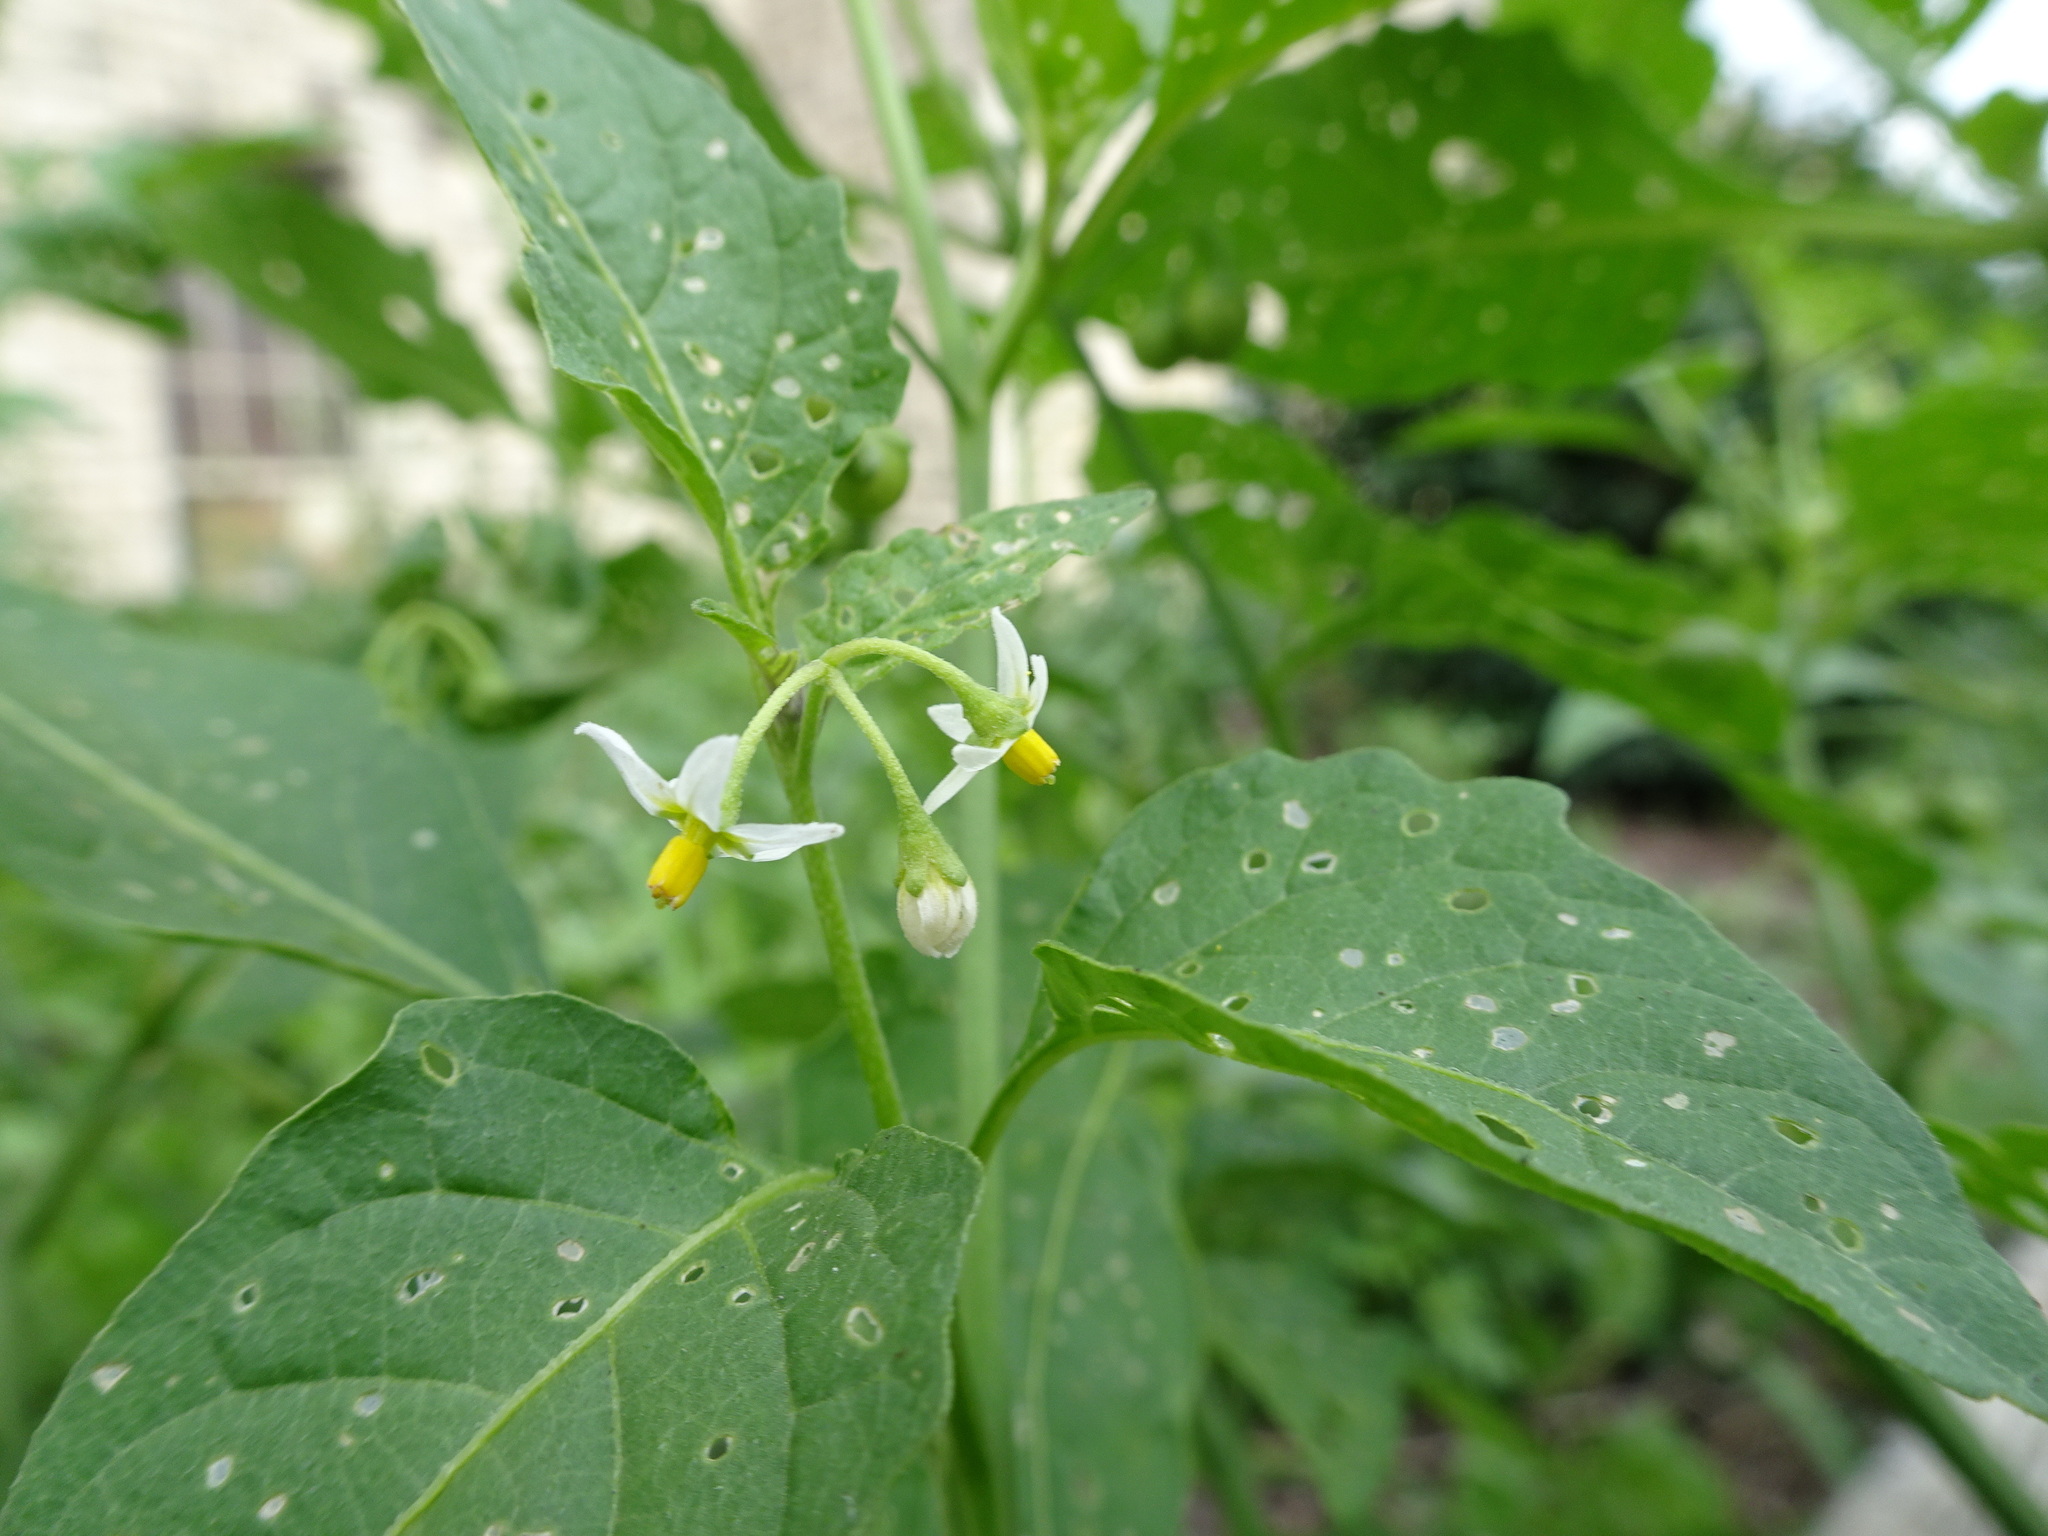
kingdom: Plantae
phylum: Tracheophyta
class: Magnoliopsida
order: Solanales
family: Solanaceae
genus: Solanum
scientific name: Solanum emulans
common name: Eastern black nightshade
